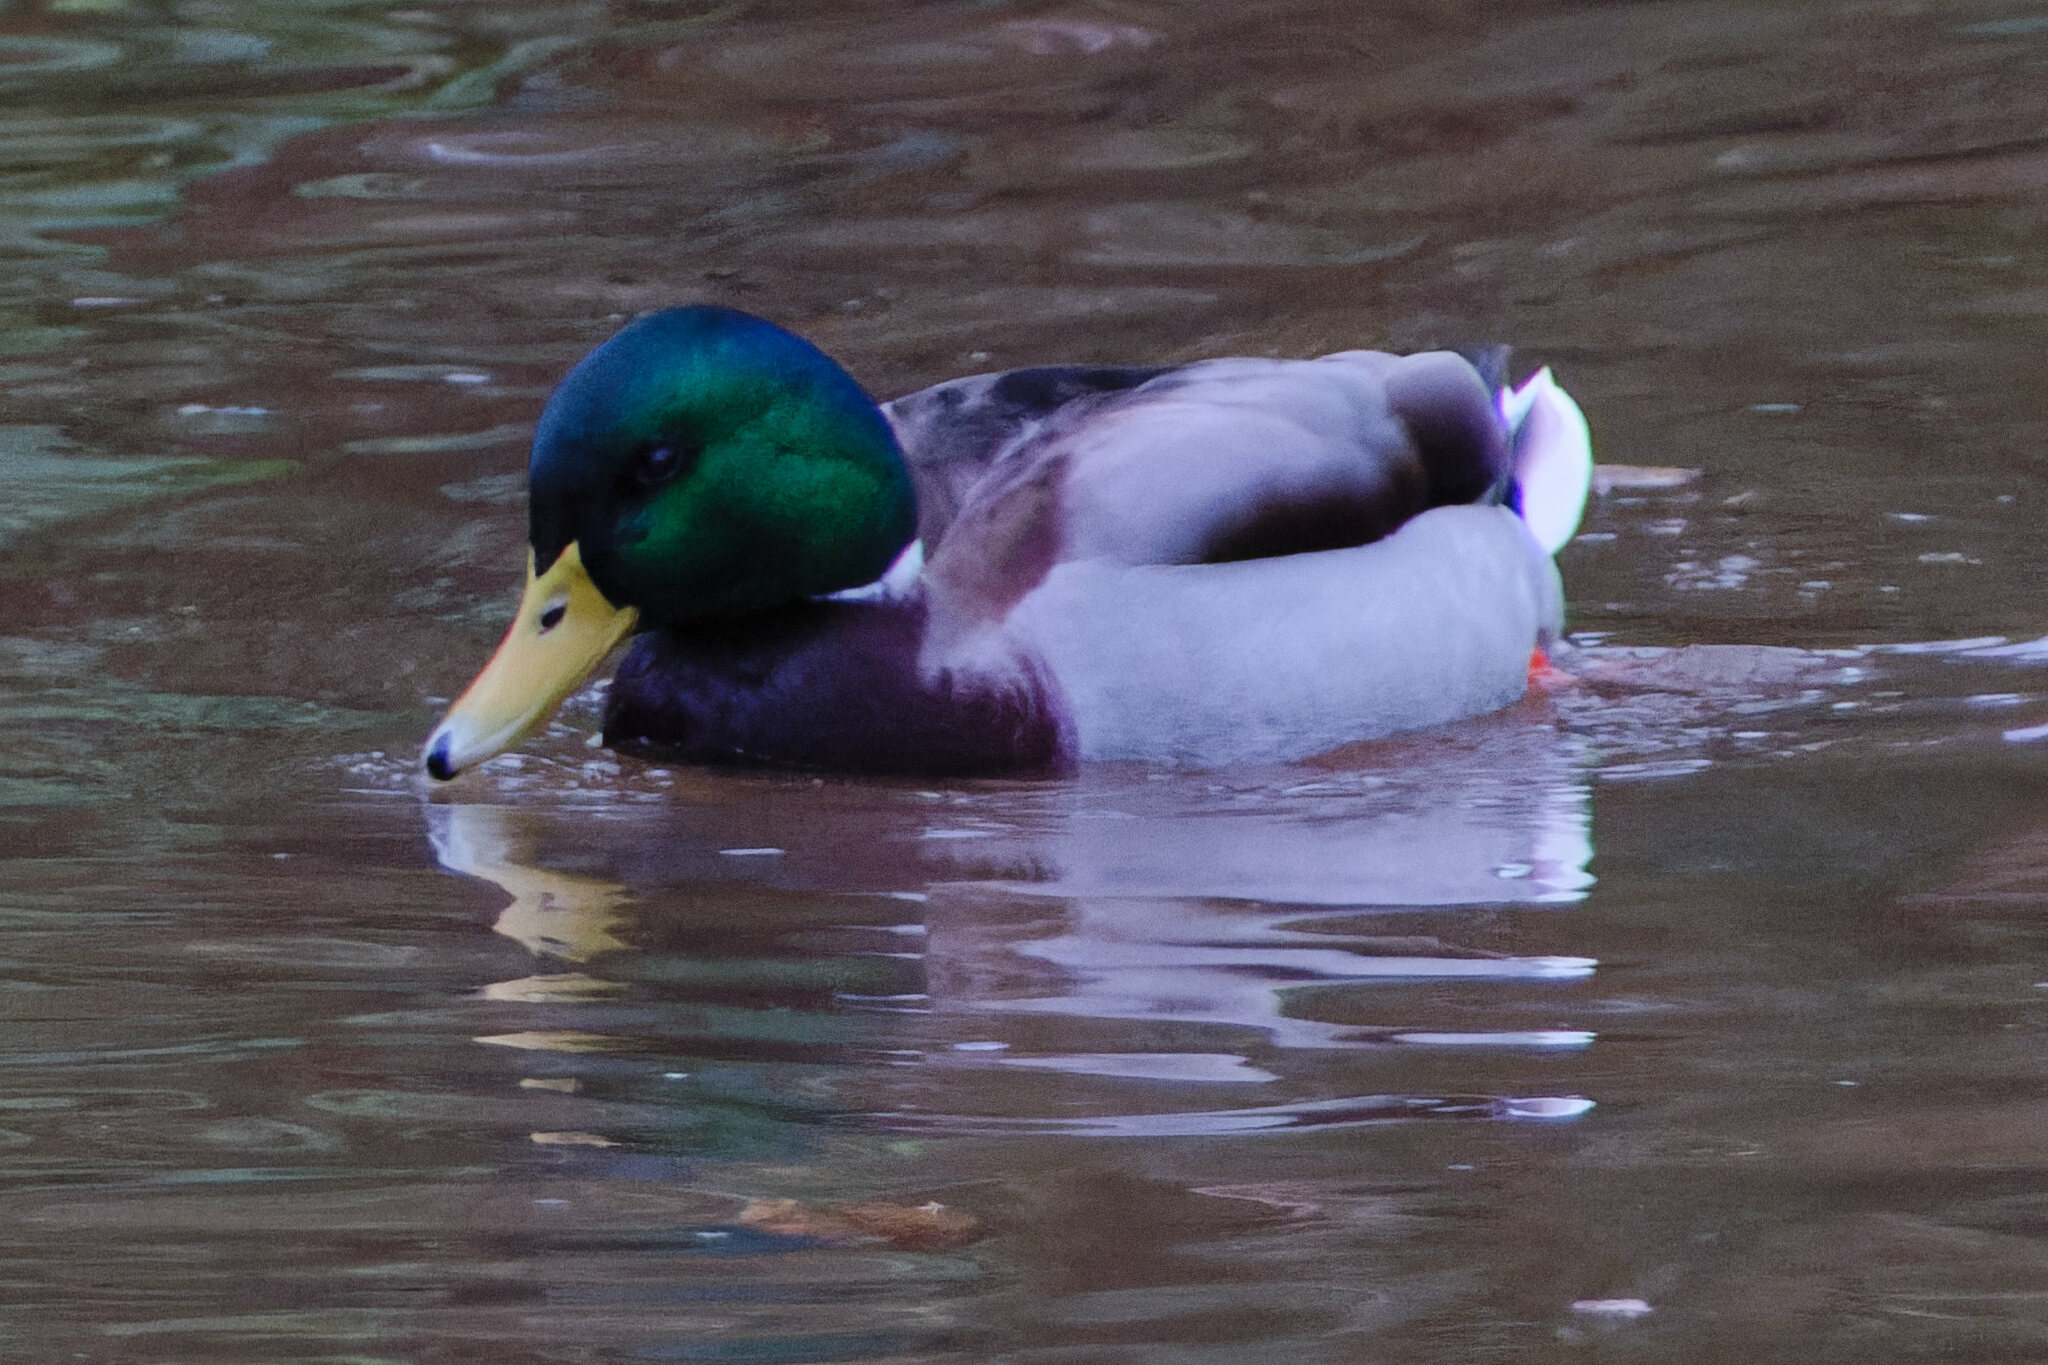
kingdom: Animalia
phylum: Chordata
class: Aves
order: Anseriformes
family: Anatidae
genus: Anas
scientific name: Anas platyrhynchos
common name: Mallard
